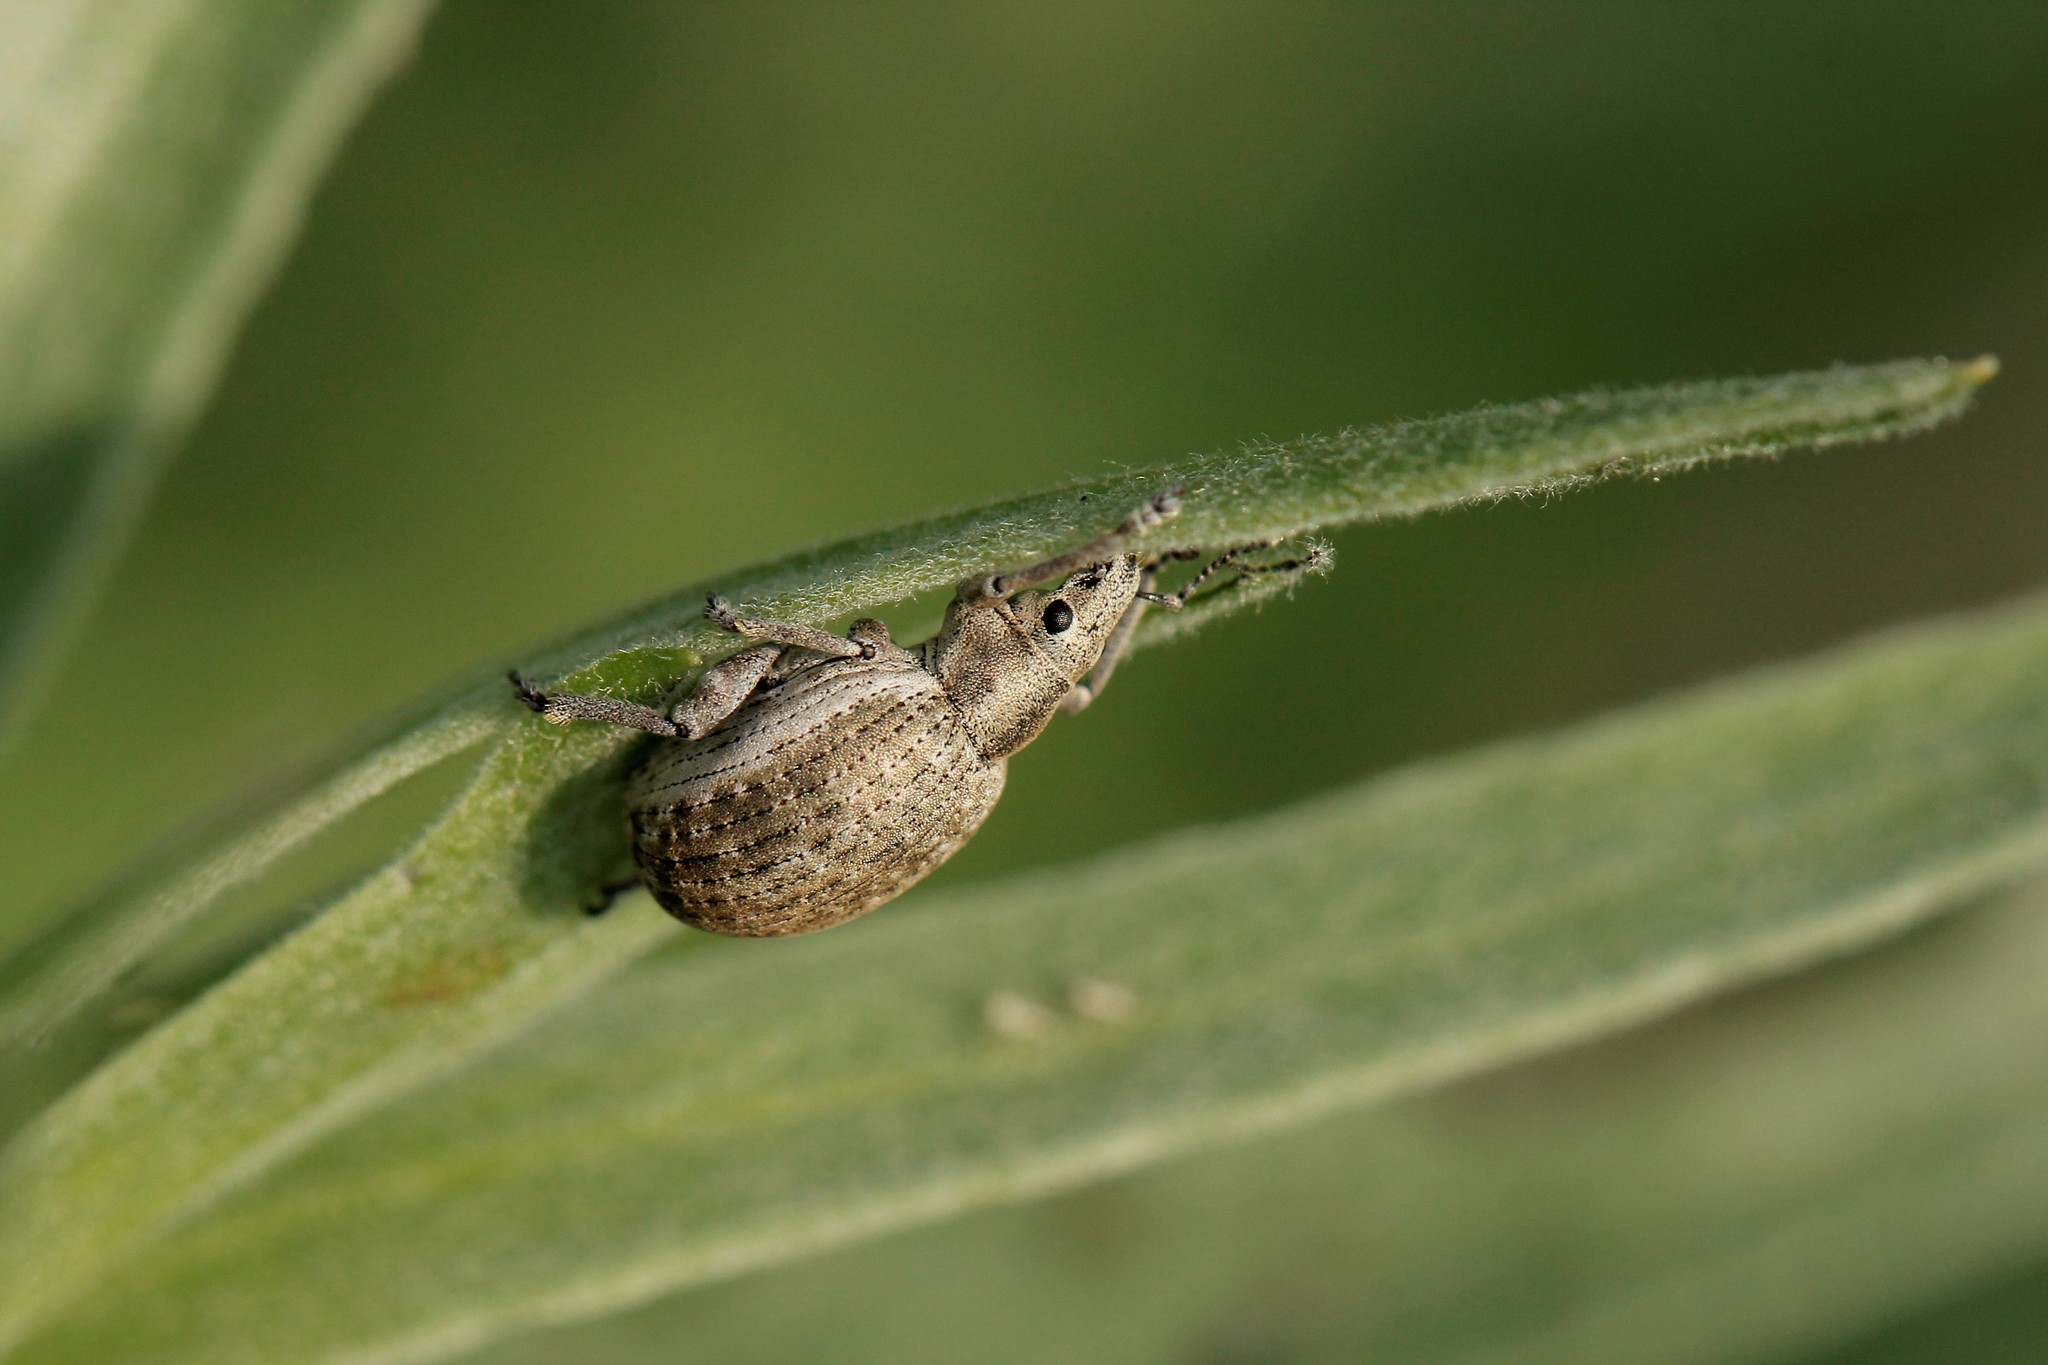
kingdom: Animalia
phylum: Arthropoda
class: Insecta
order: Coleoptera
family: Curculionidae
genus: Attactagenus
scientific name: Attactagenus albinus
